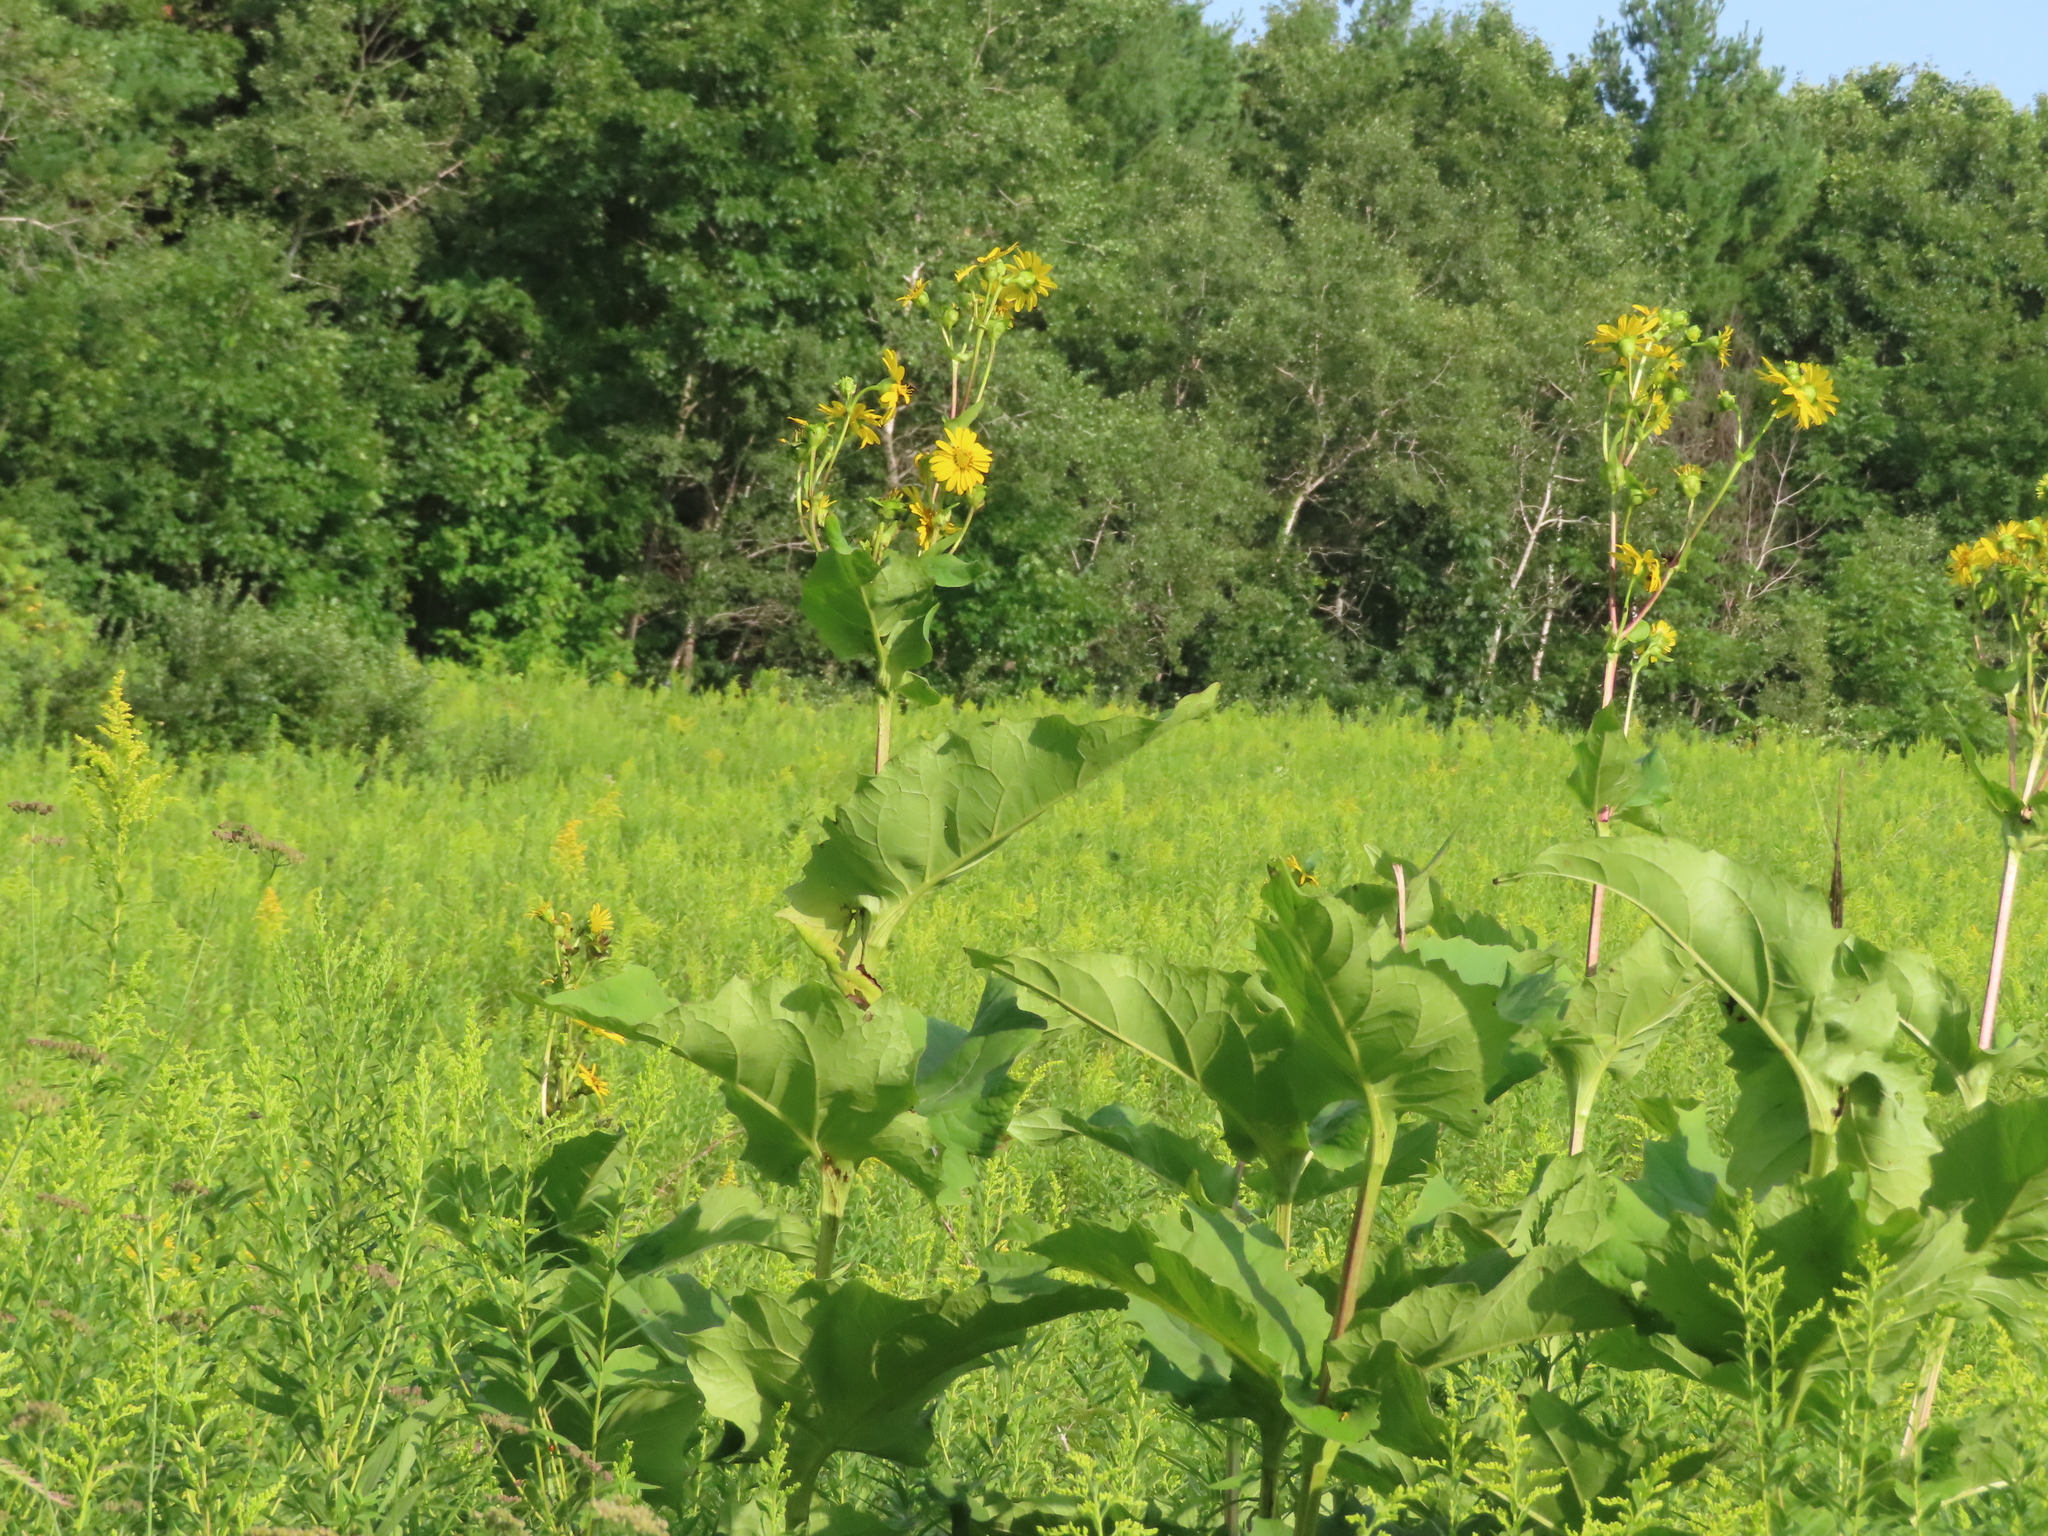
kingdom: Plantae
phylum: Tracheophyta
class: Magnoliopsida
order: Asterales
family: Asteraceae
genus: Silphium
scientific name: Silphium perfoliatum
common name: Cup-plant
